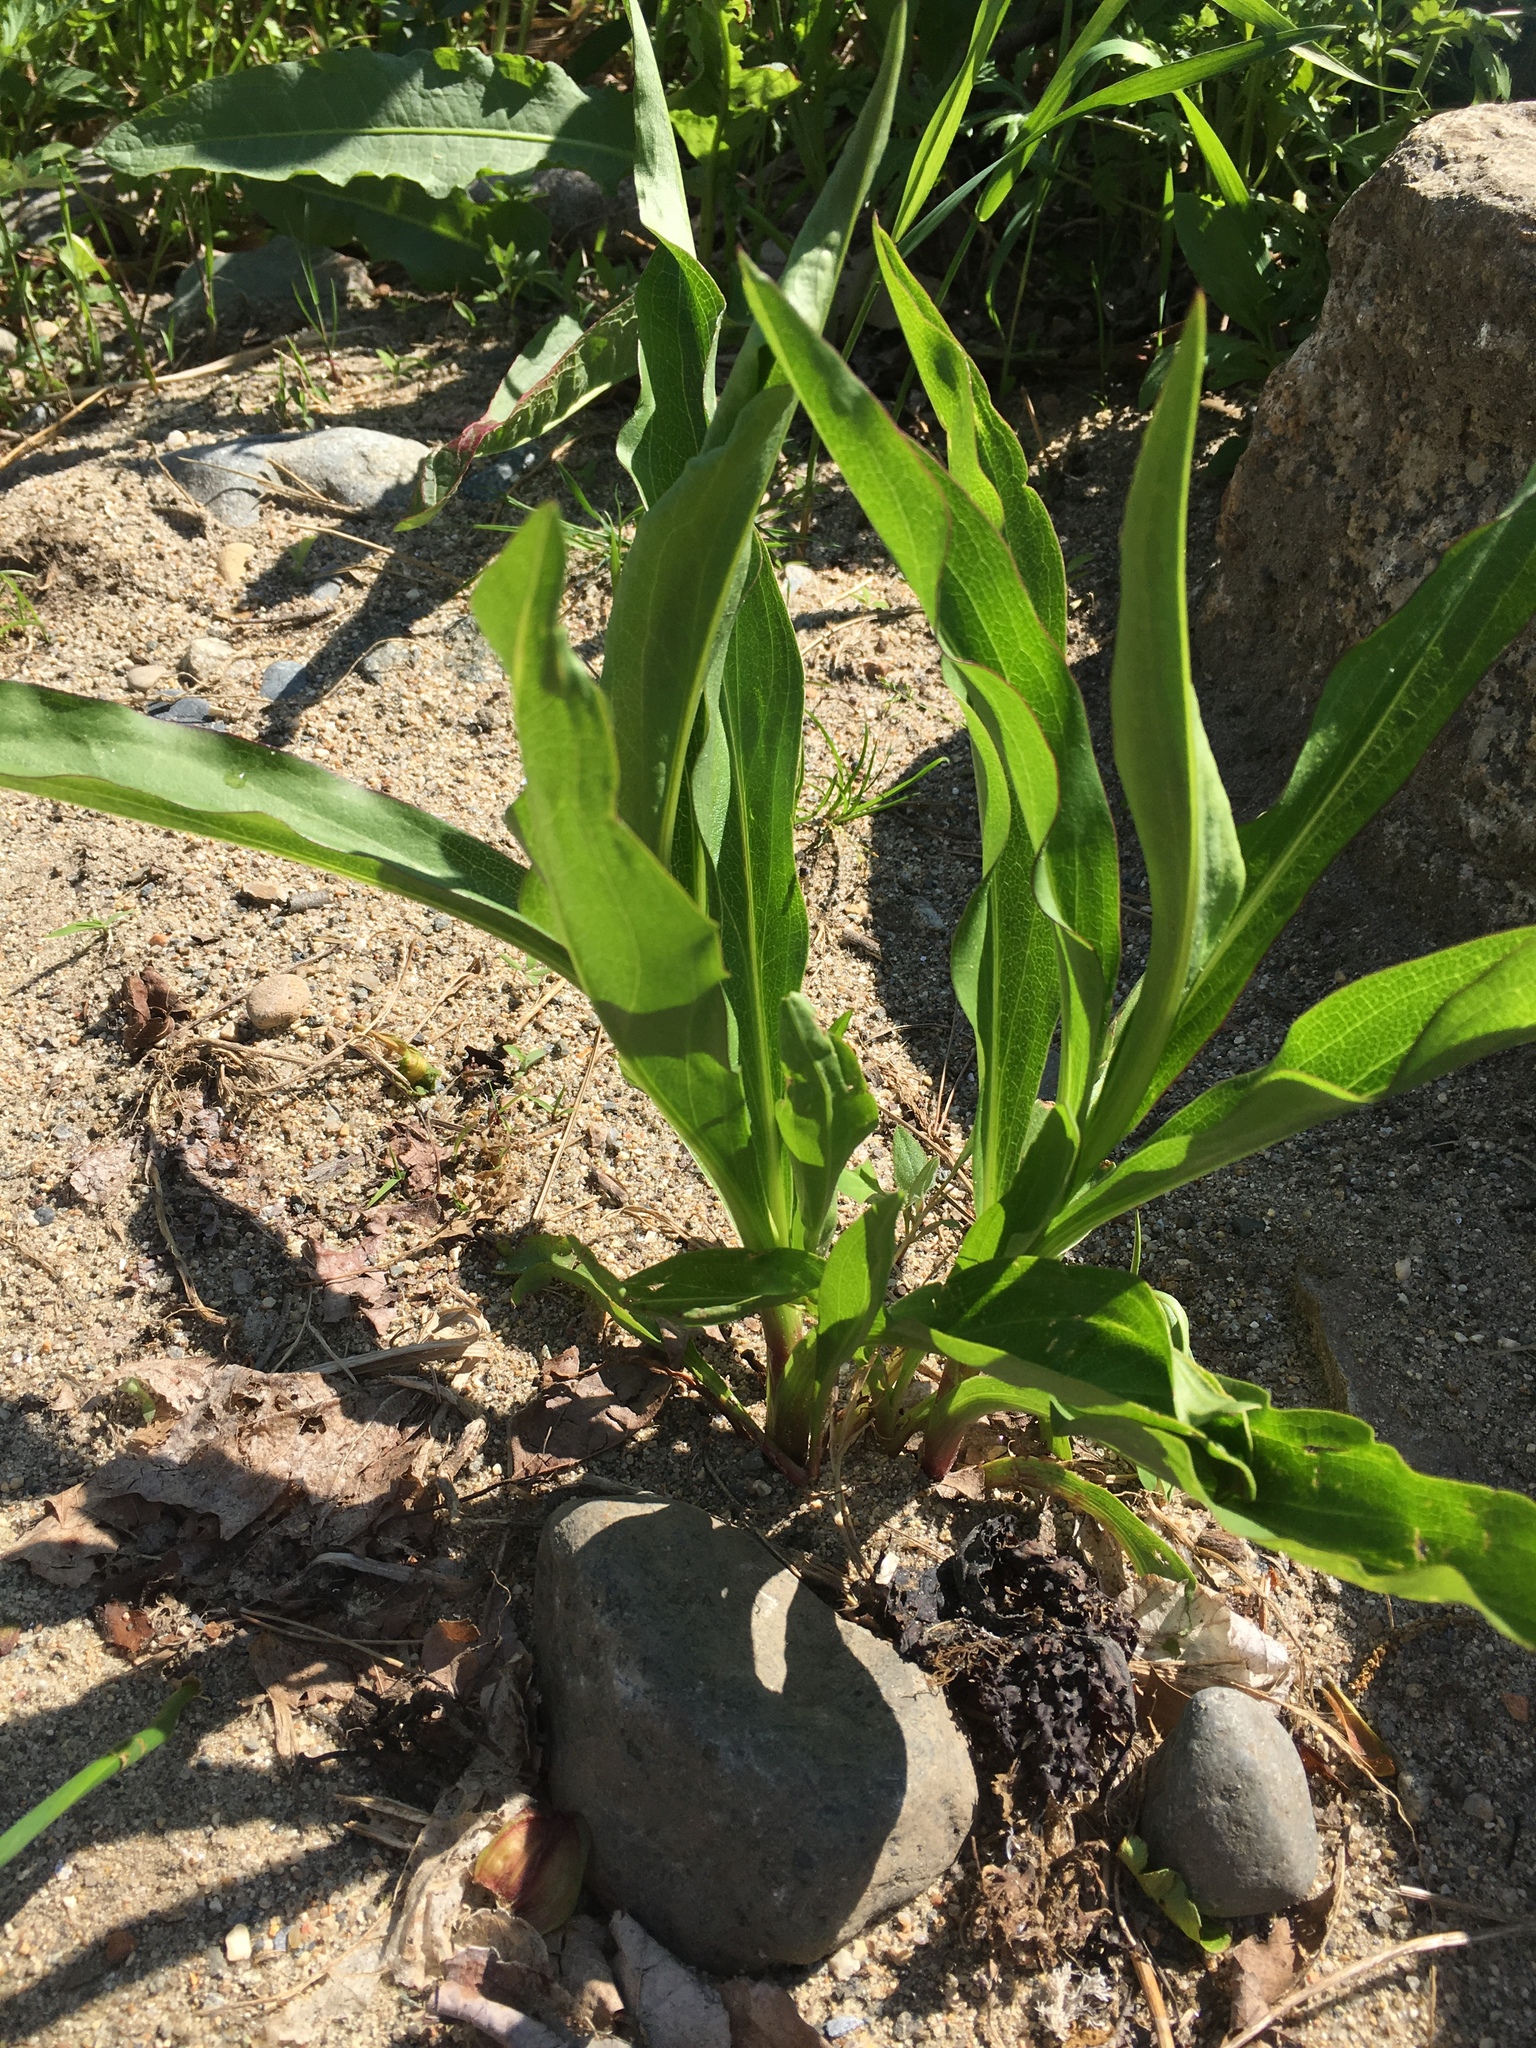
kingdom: Plantae
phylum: Tracheophyta
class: Magnoliopsida
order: Asterales
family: Asteraceae
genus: Solidago
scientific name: Solidago sempervirens
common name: Salt-marsh goldenrod
